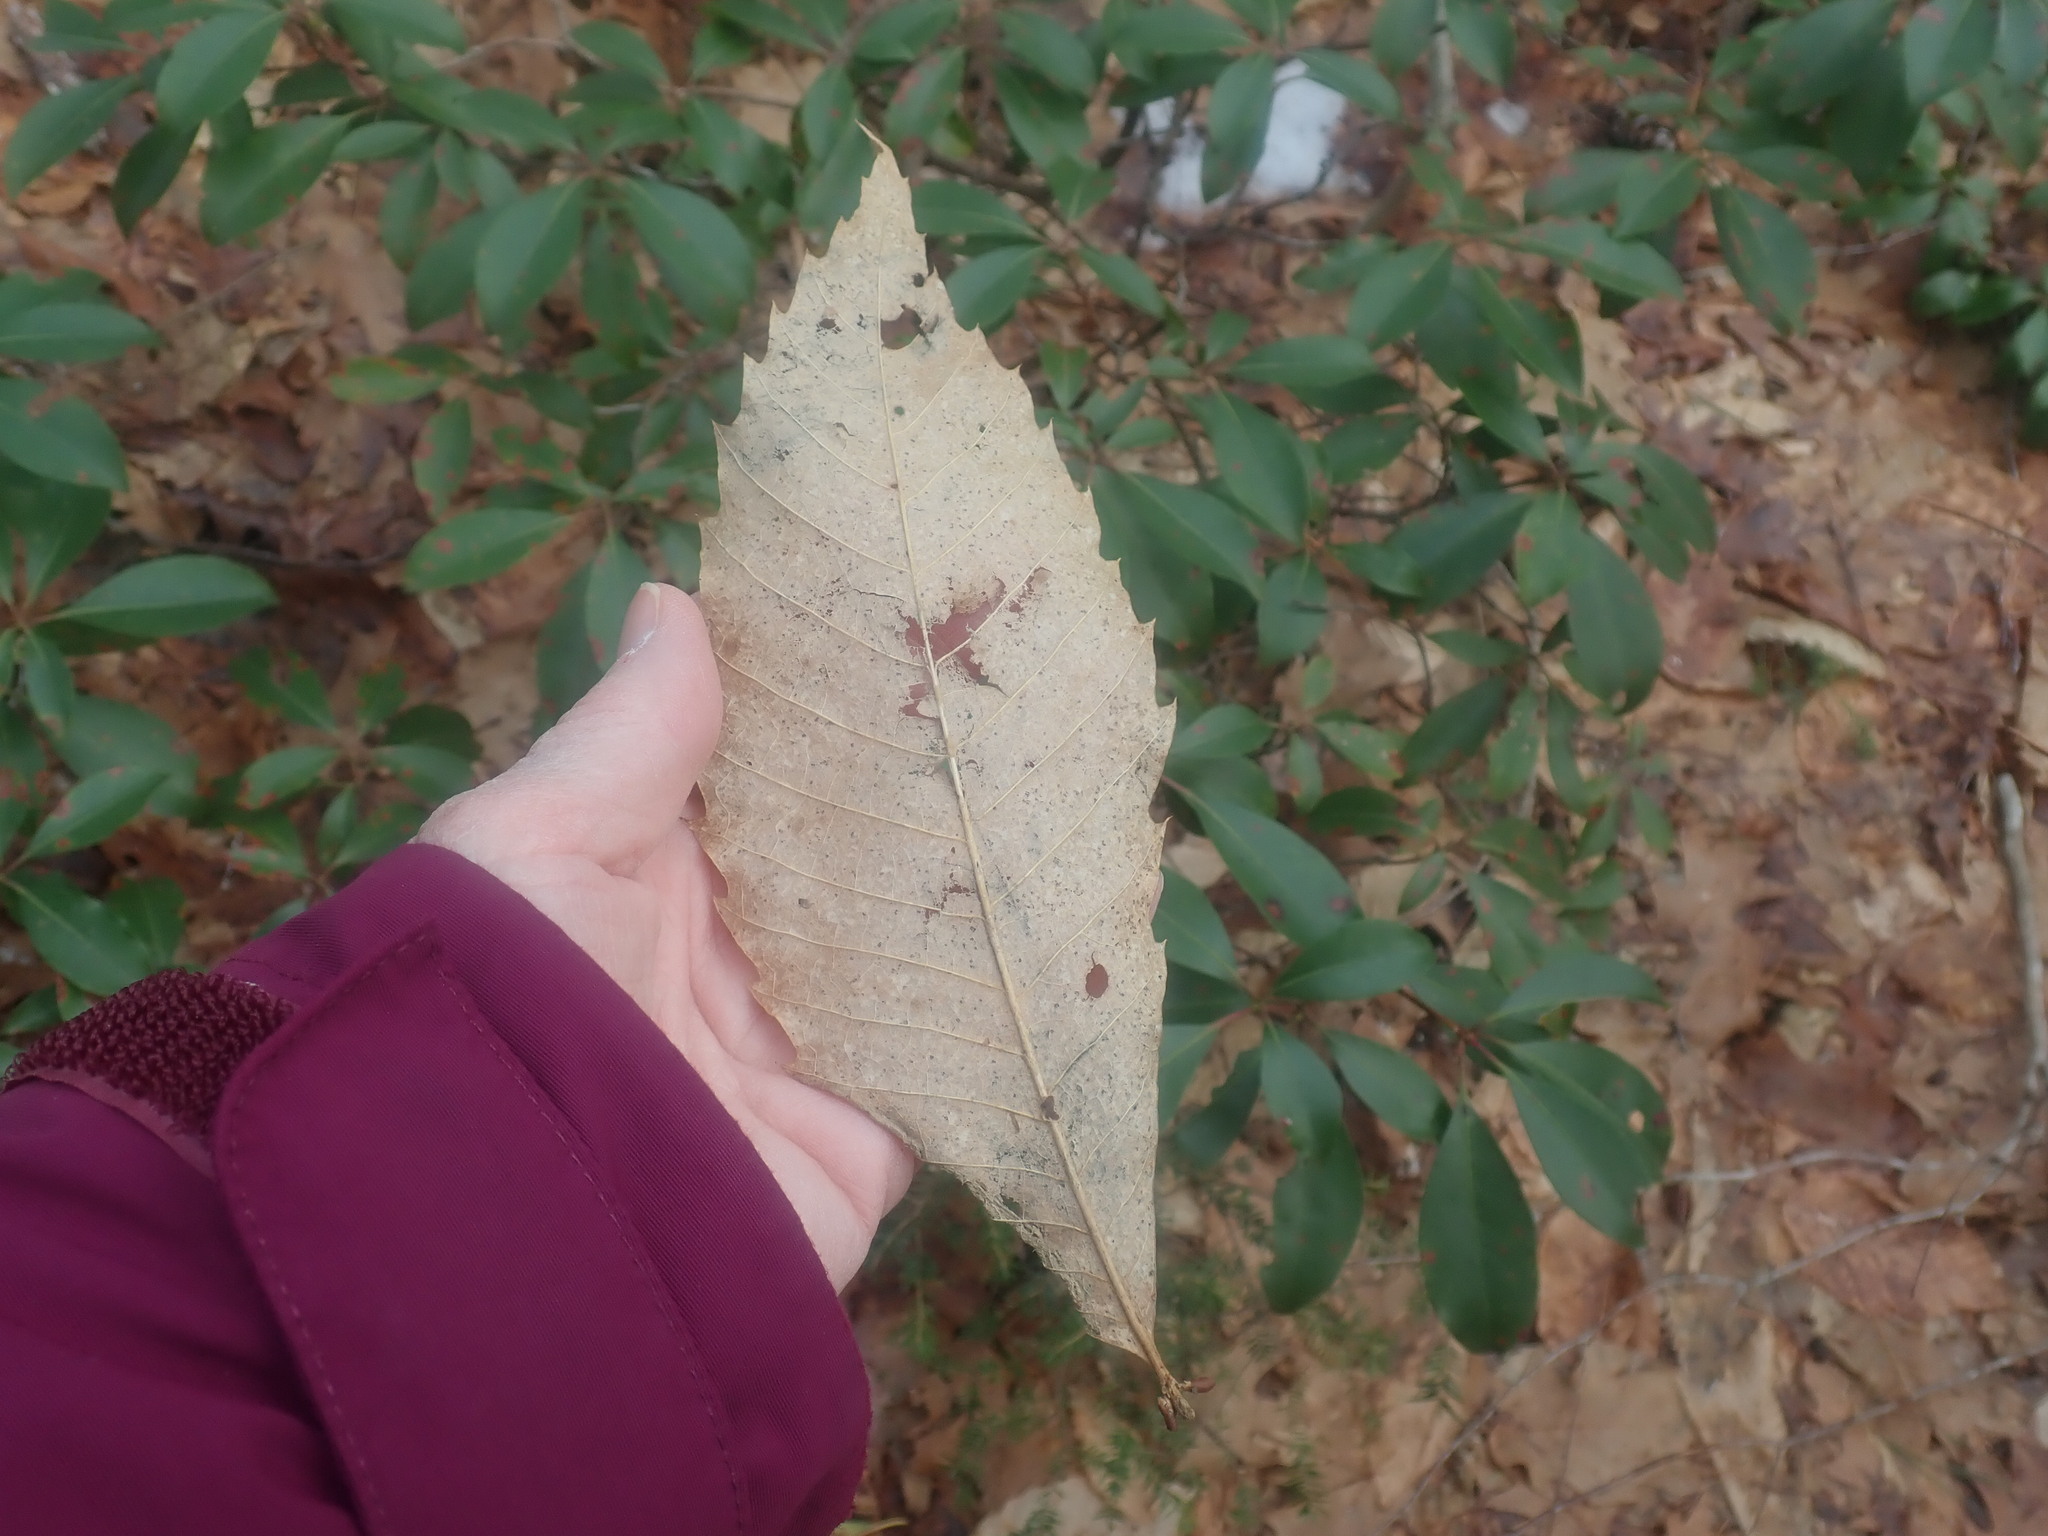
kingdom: Plantae
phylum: Tracheophyta
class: Magnoliopsida
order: Fagales
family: Fagaceae
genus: Castanea
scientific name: Castanea dentata
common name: American chestnut
